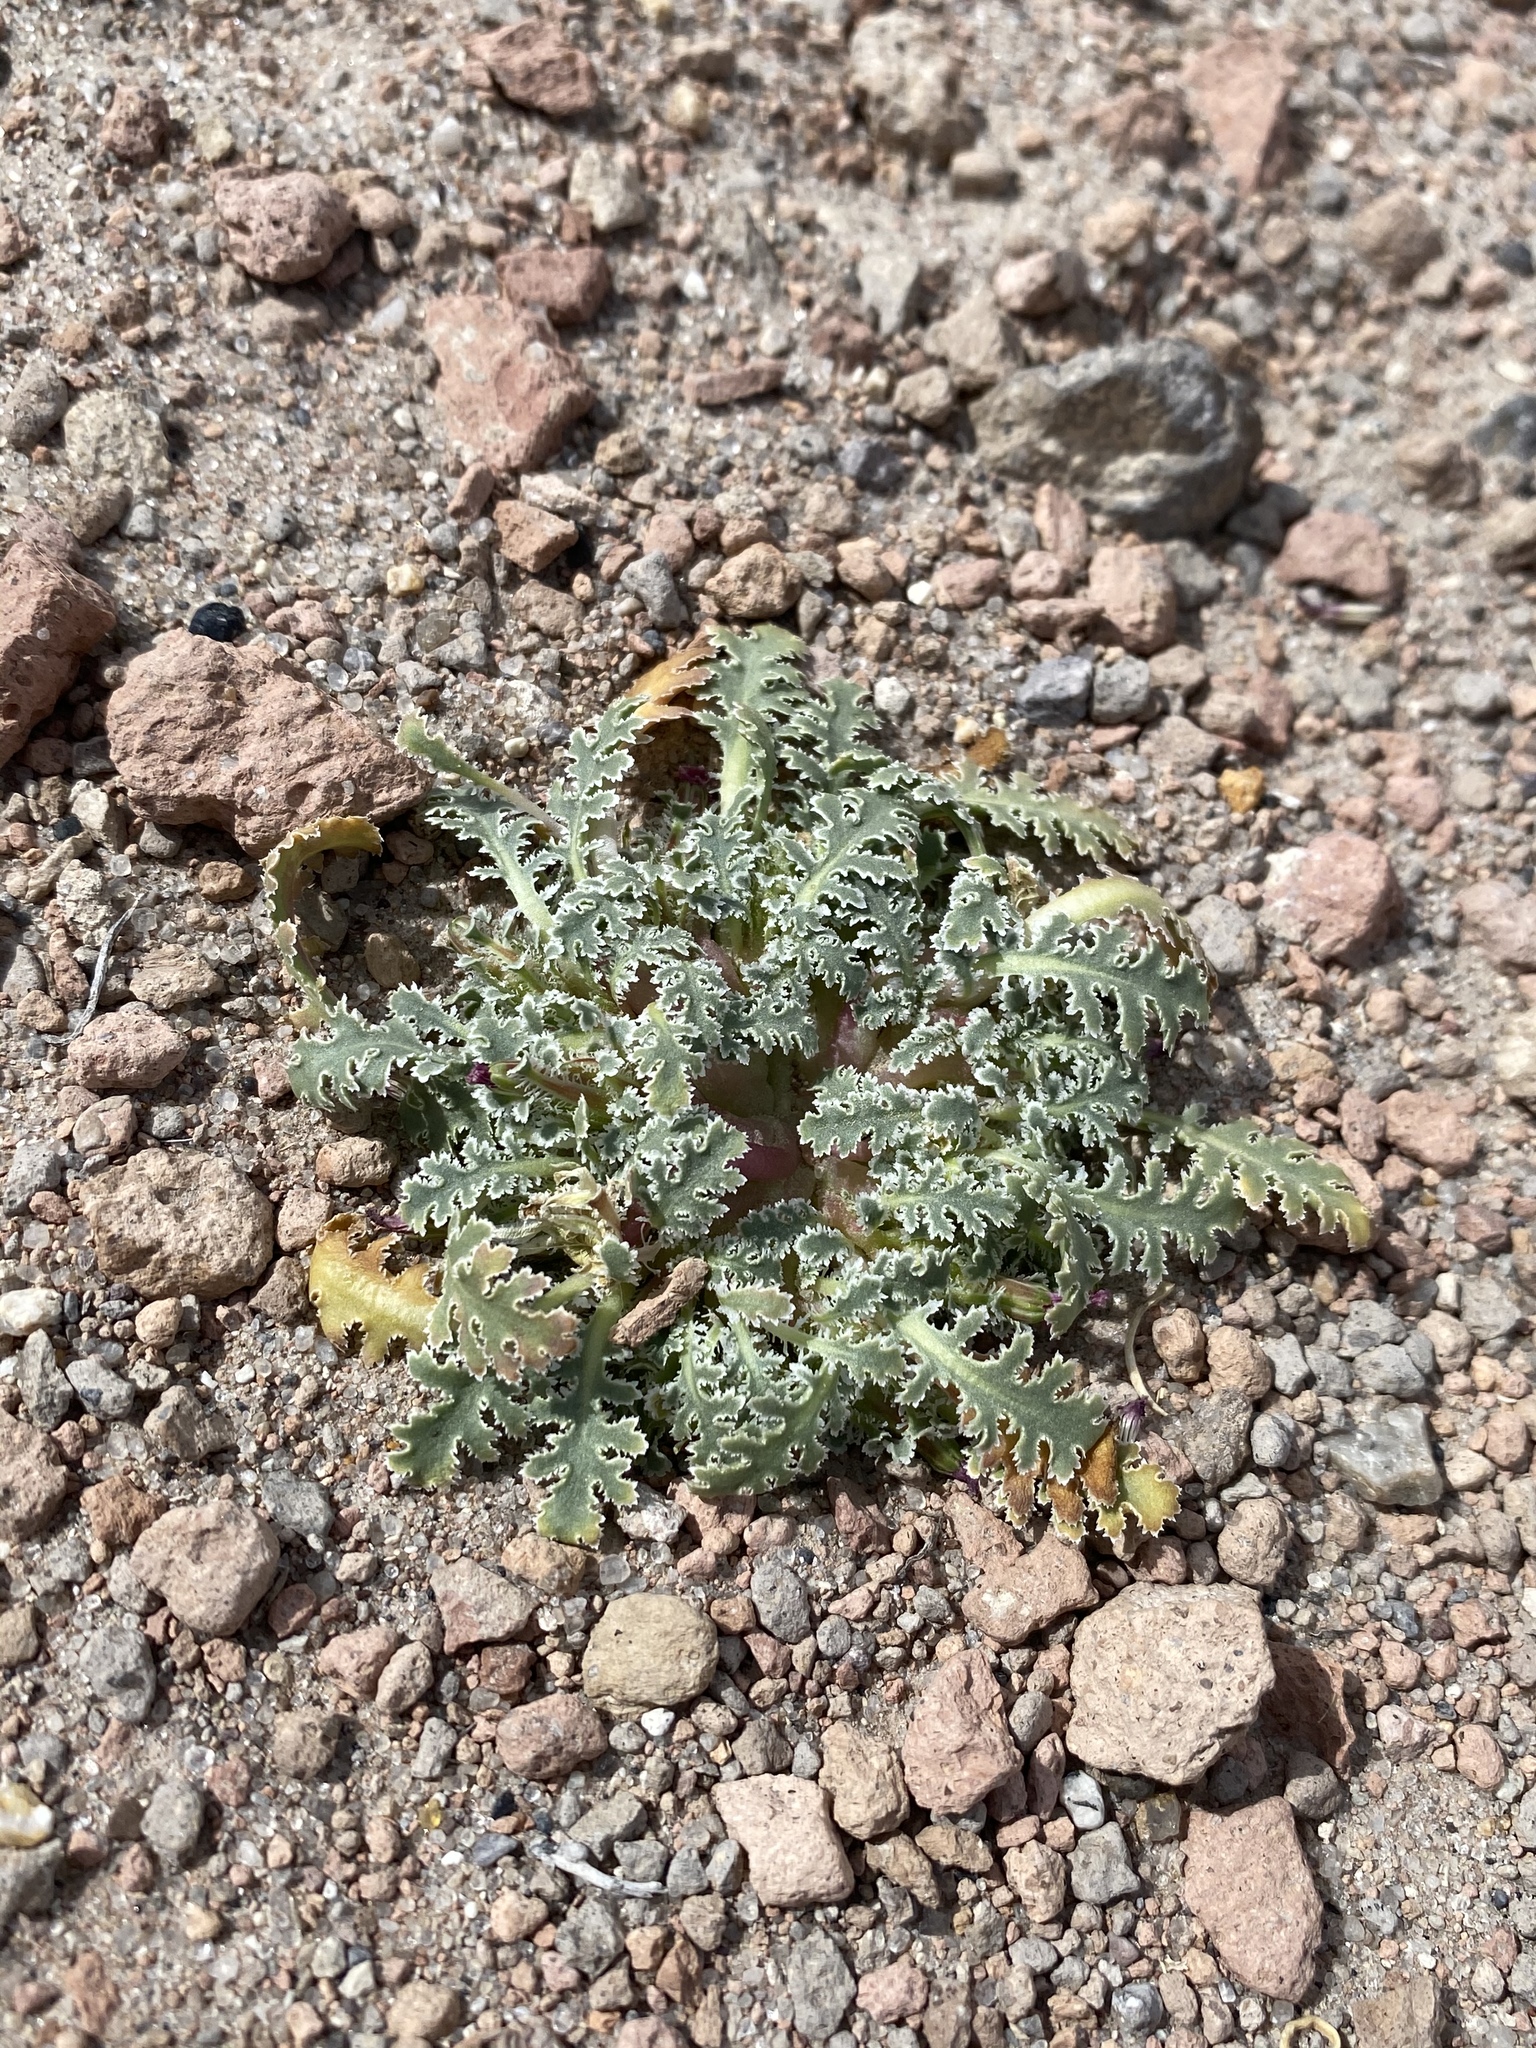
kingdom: Plantae
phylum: Tracheophyta
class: Magnoliopsida
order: Asterales
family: Asteraceae
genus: Glyptopleura
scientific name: Glyptopleura marginata
